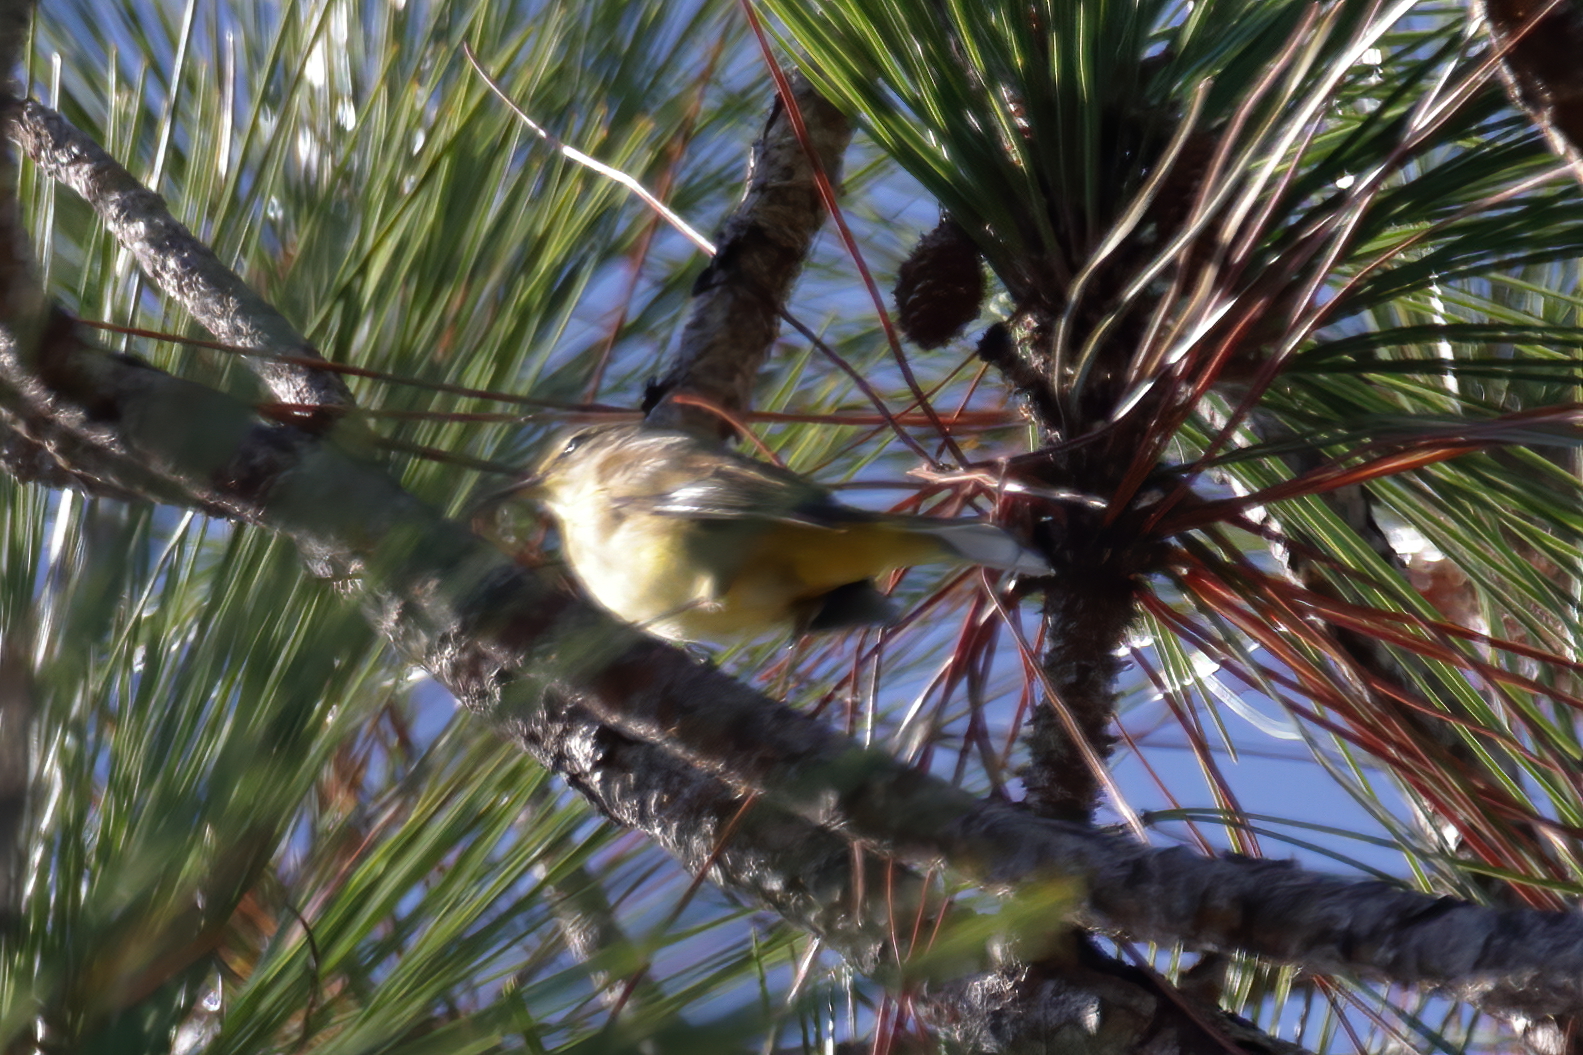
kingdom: Animalia
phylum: Chordata
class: Aves
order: Passeriformes
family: Parulidae
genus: Setophaga
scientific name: Setophaga palmarum
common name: Palm warbler
